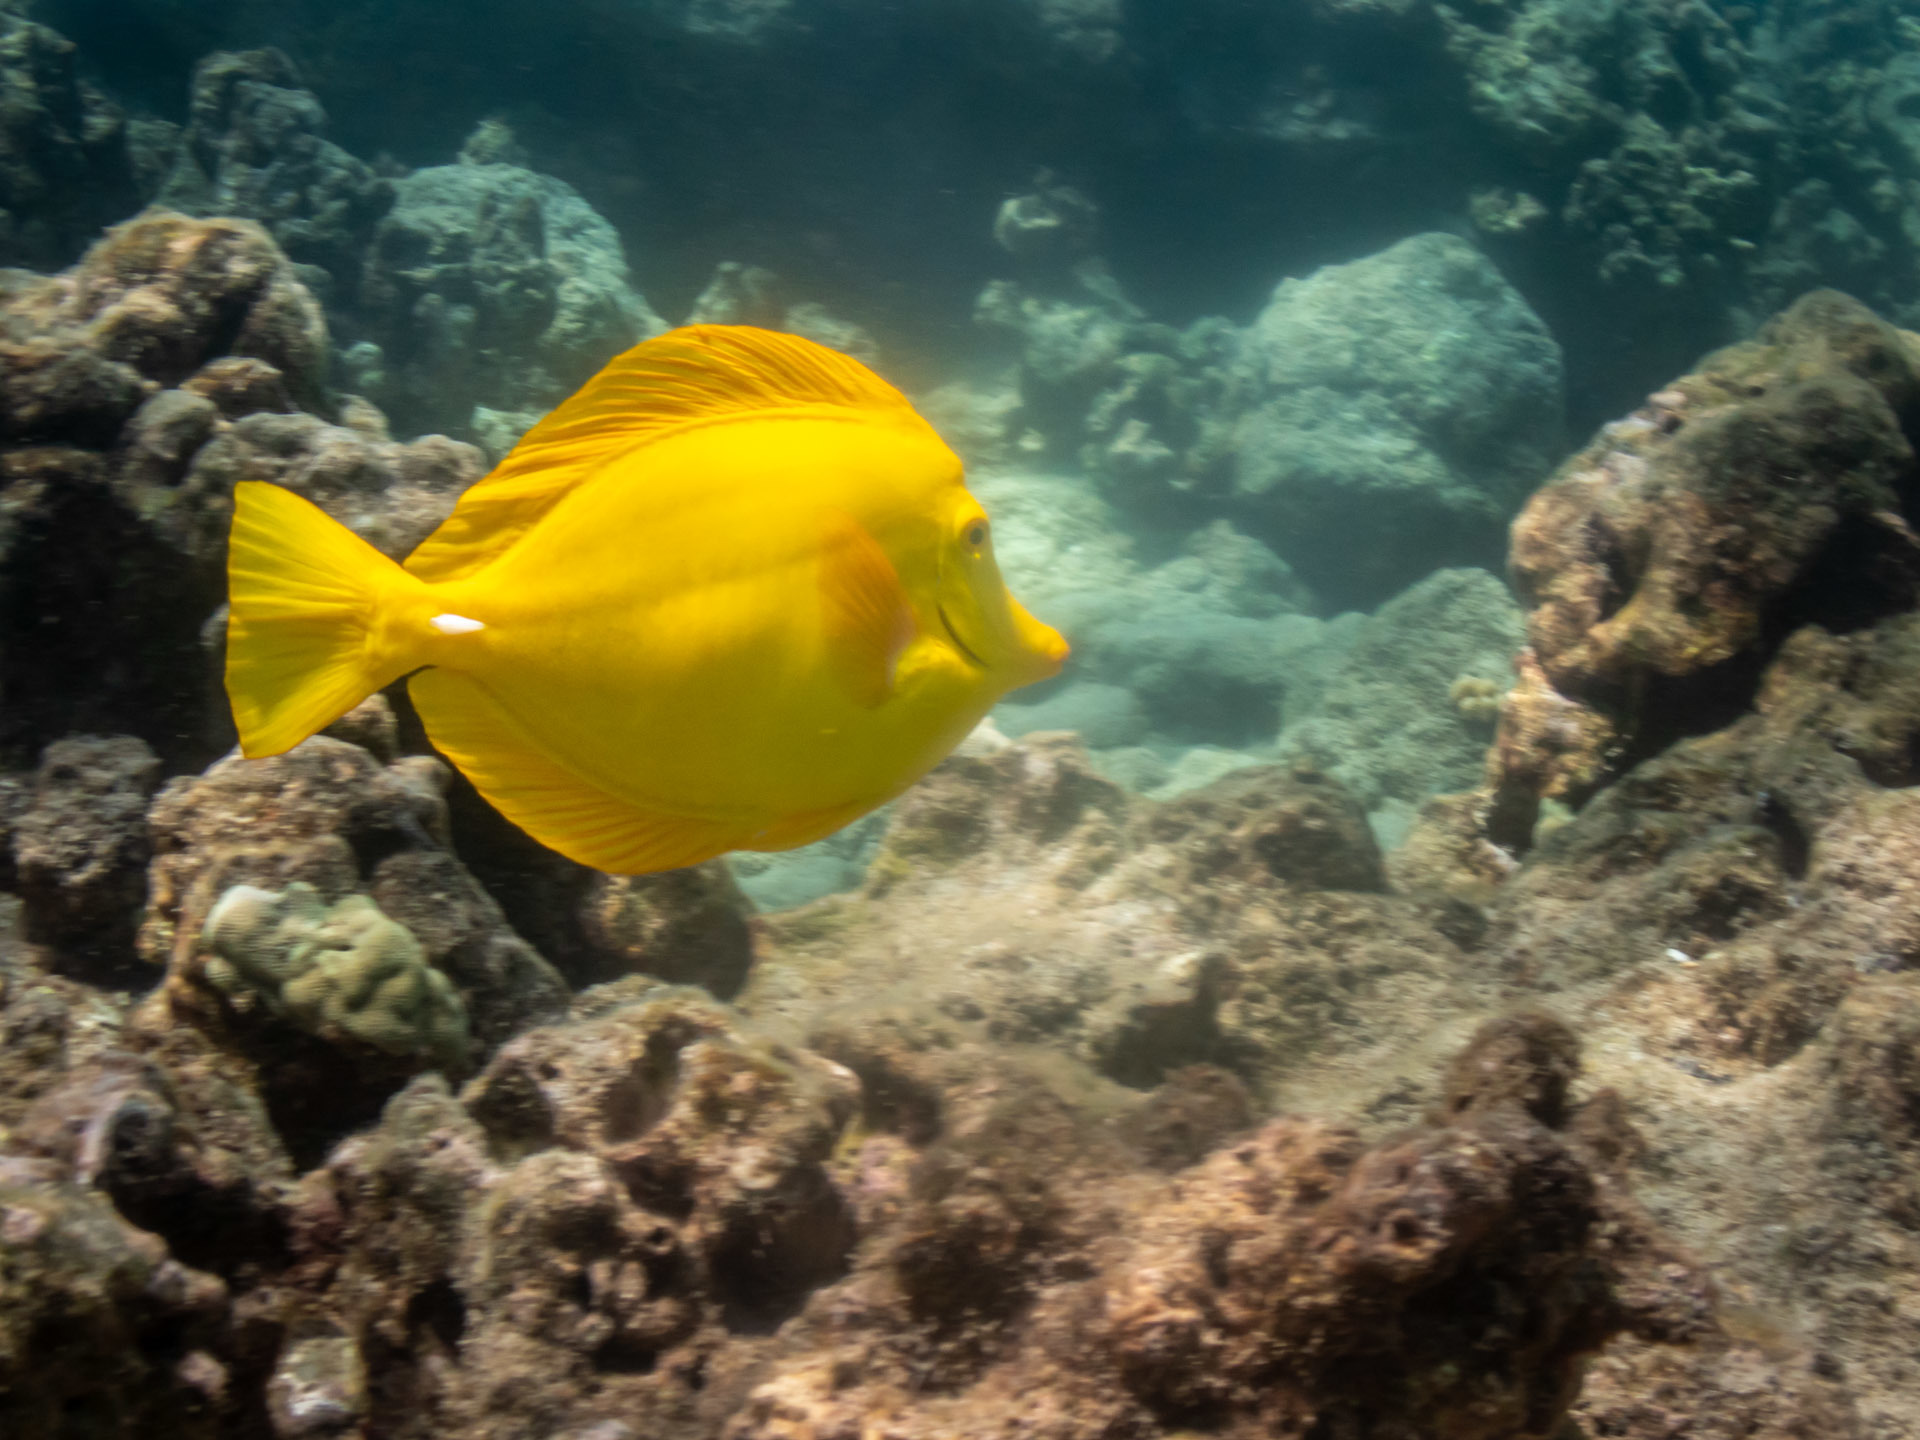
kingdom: Animalia
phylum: Chordata
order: Perciformes
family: Acanthuridae
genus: Zebrasoma
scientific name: Zebrasoma flavescens
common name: Yellow tang
